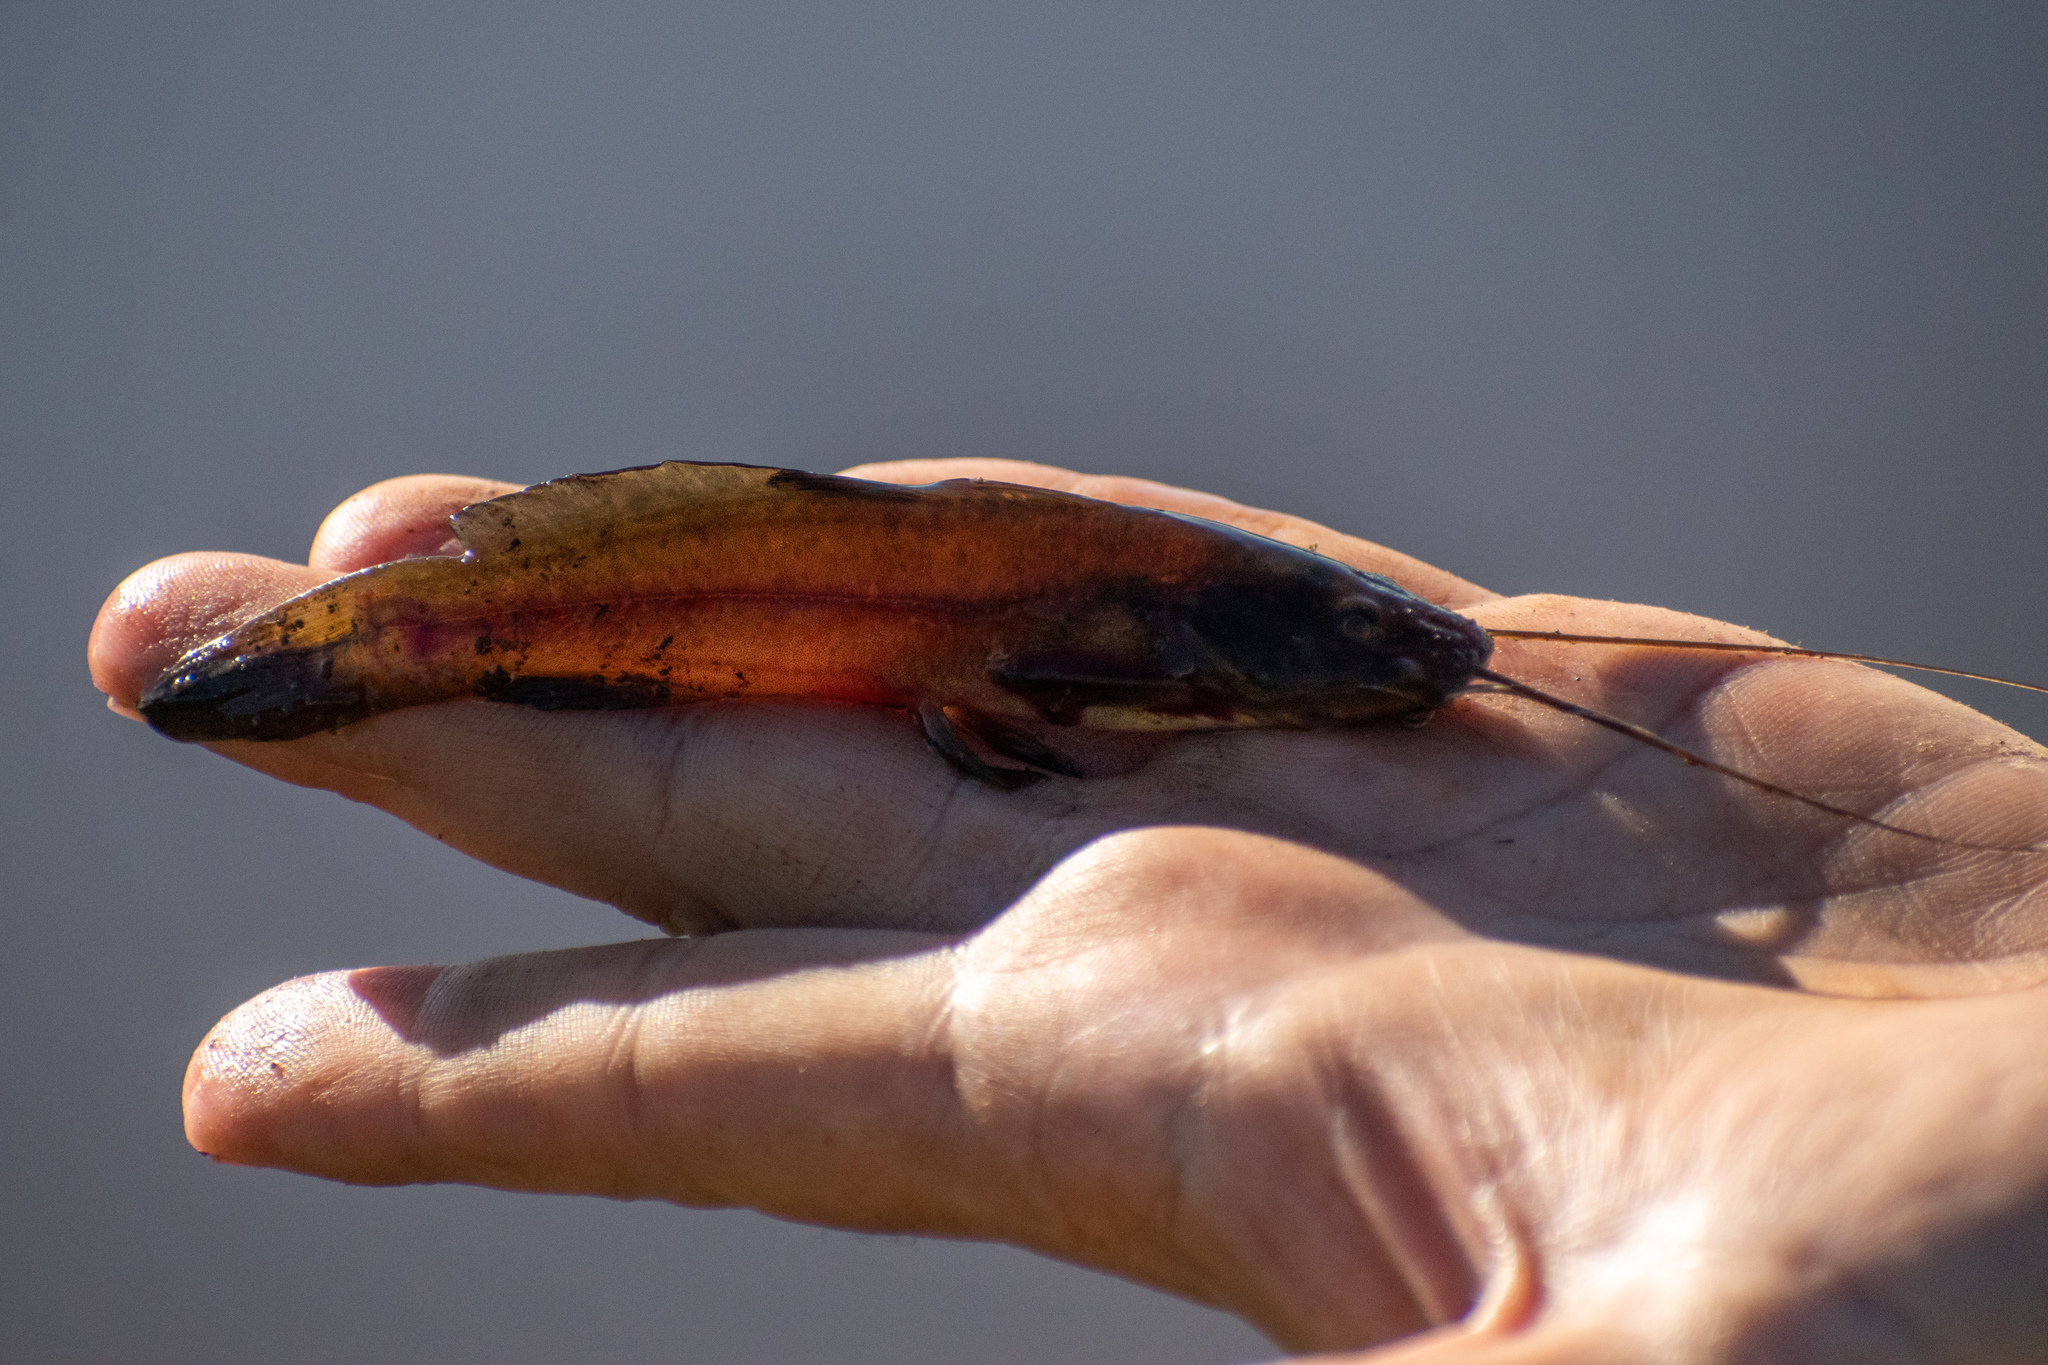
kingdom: Animalia
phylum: Chordata
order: Siluriformes
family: Heptapteridae
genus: Rhamdia
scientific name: Rhamdia quelen
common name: Catfish
